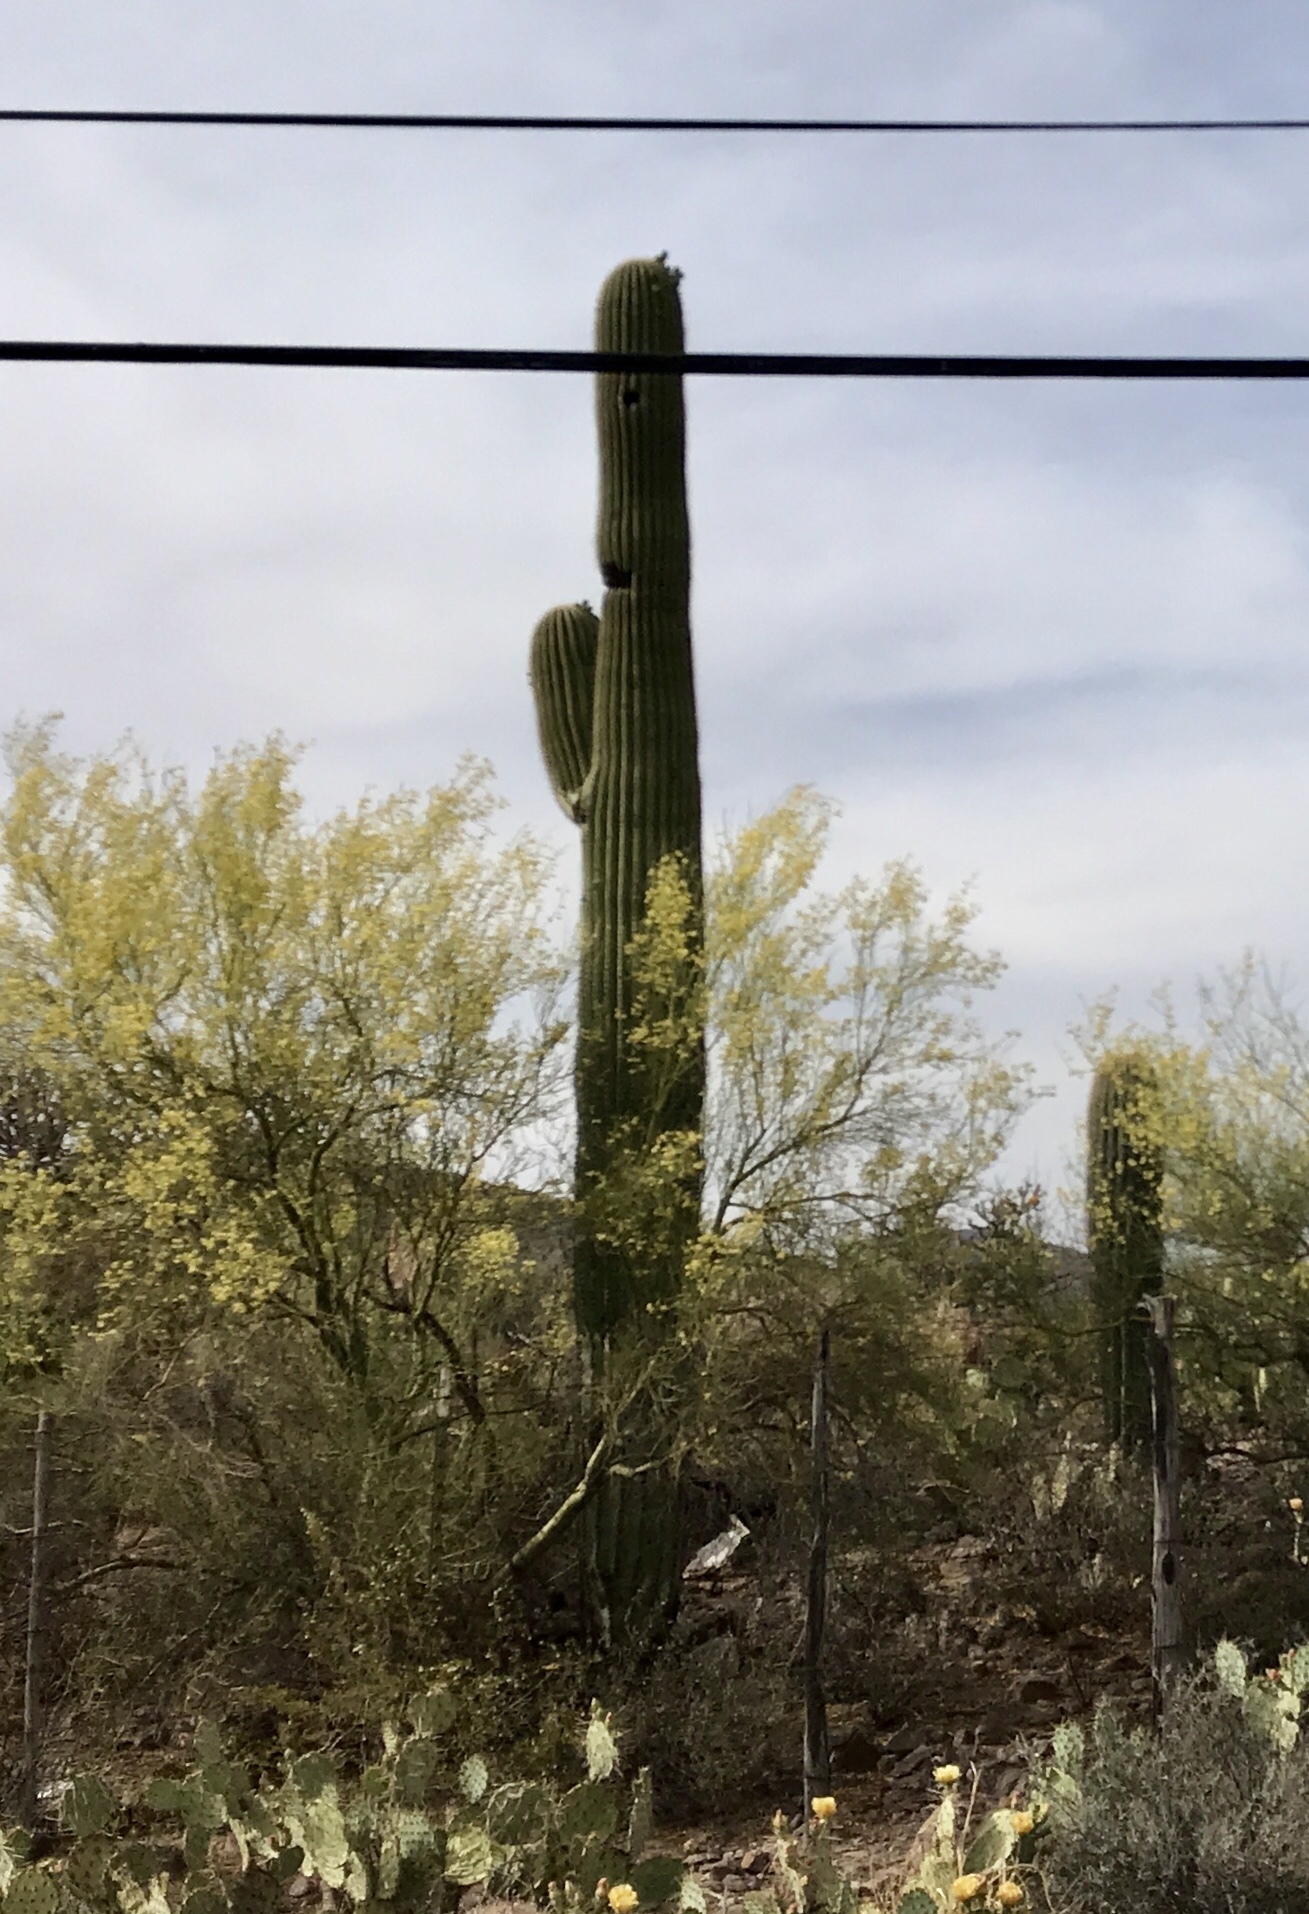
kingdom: Plantae
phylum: Tracheophyta
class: Magnoliopsida
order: Caryophyllales
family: Cactaceae
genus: Carnegiea
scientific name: Carnegiea gigantea
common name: Saguaro
